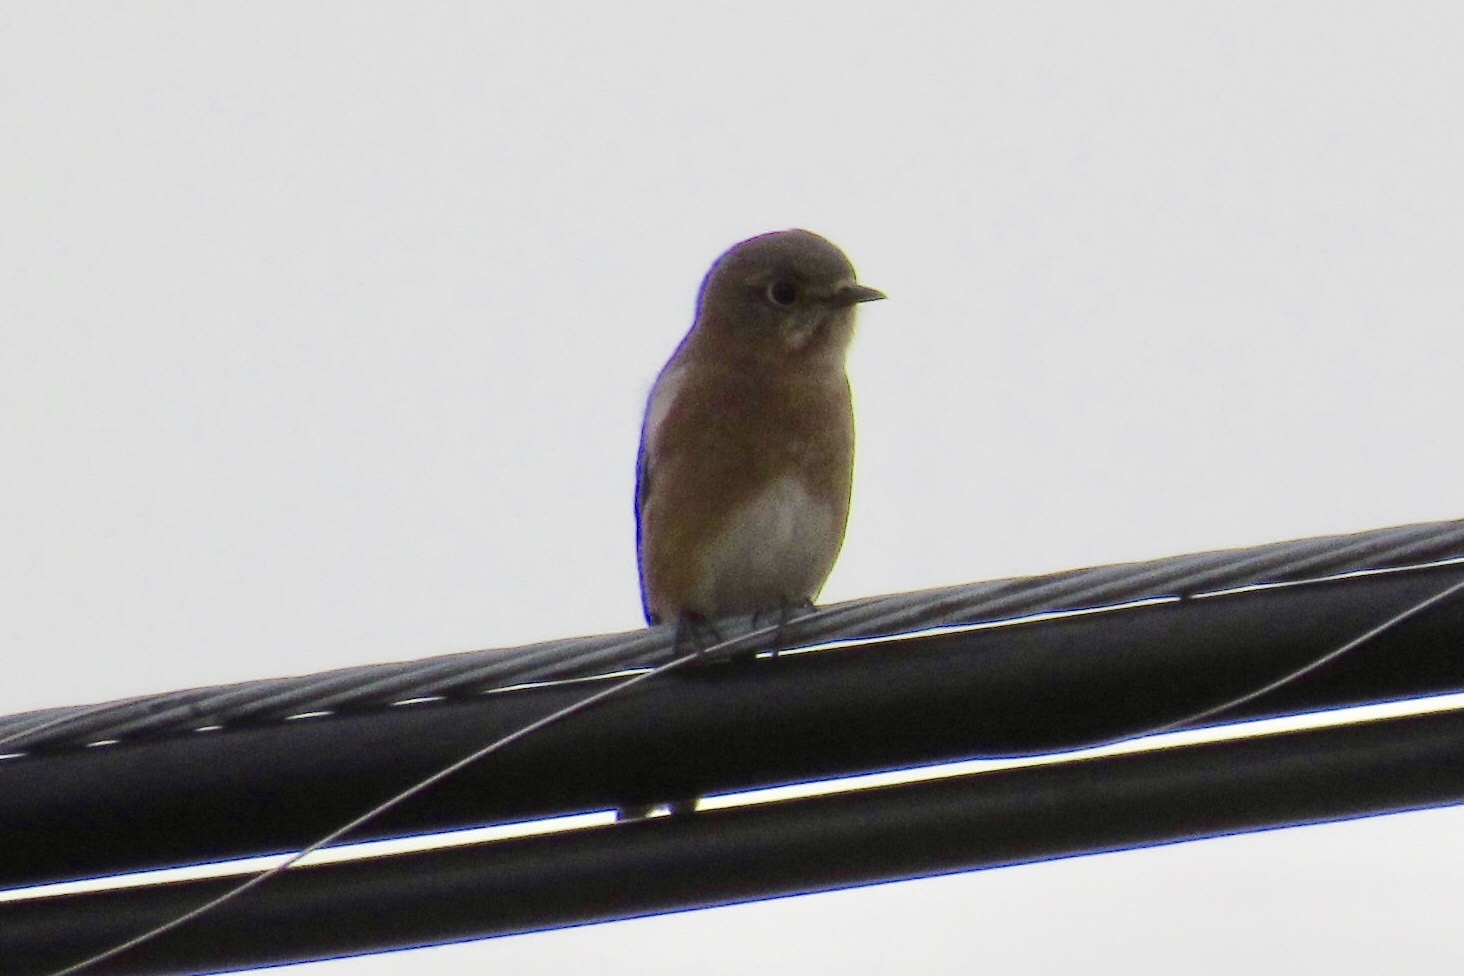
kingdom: Animalia
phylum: Chordata
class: Aves
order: Passeriformes
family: Turdidae
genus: Sialia
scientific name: Sialia sialis
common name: Eastern bluebird
